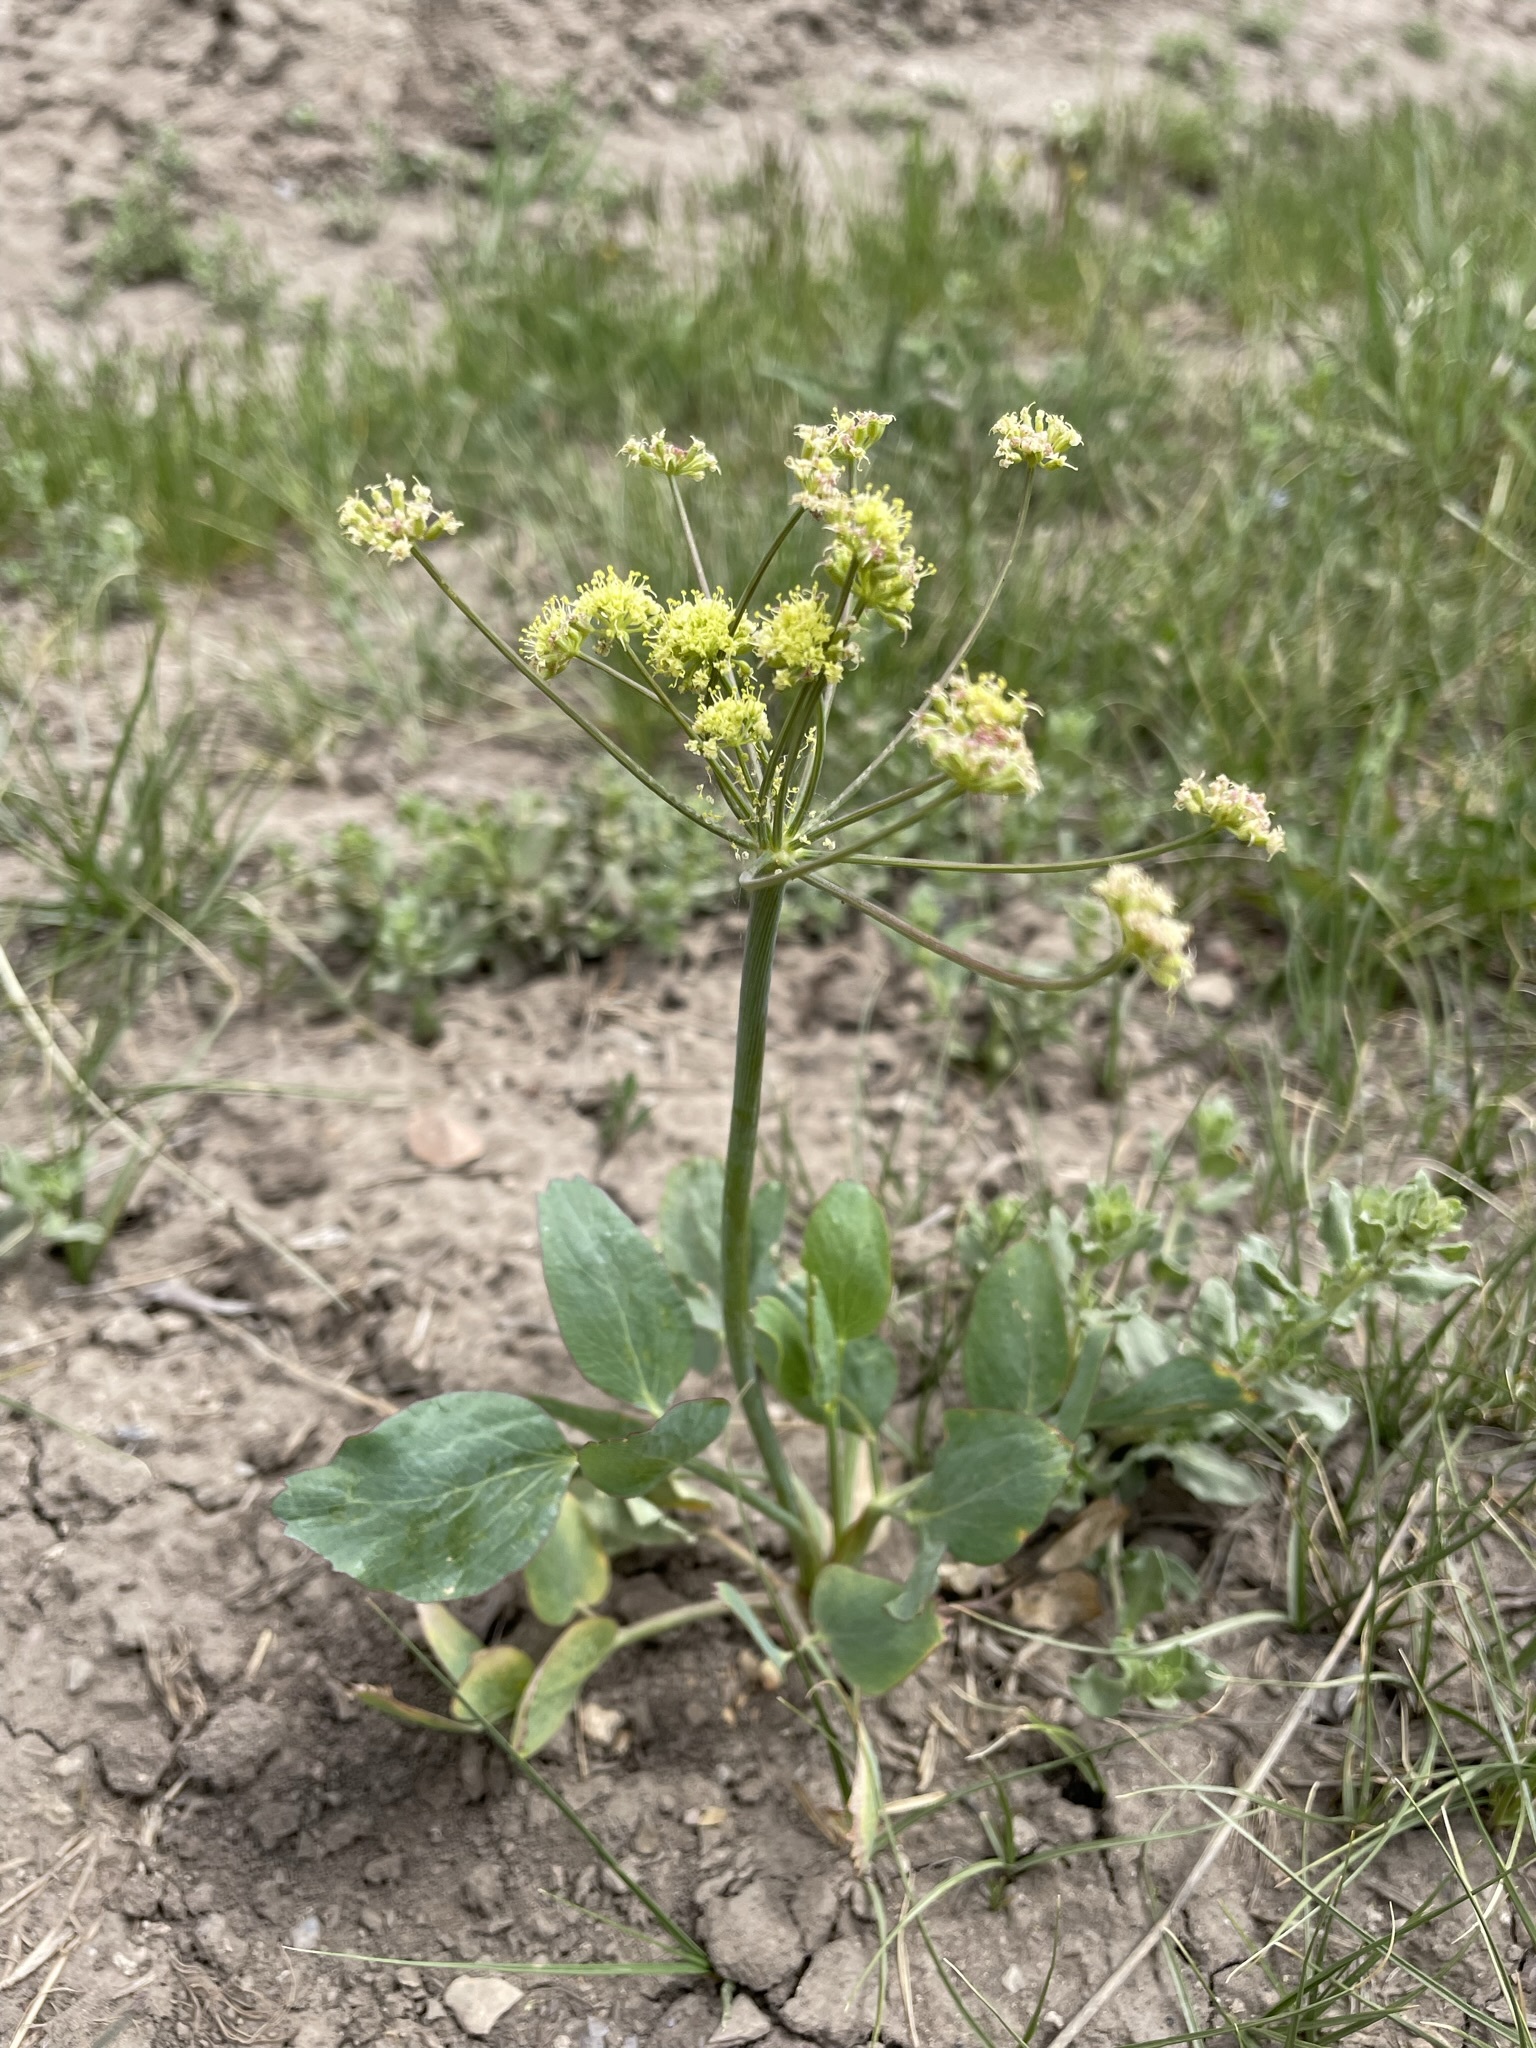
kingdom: Plantae
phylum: Tracheophyta
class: Magnoliopsida
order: Apiales
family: Apiaceae
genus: Lomatium
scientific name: Lomatium nudicaule
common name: Pestle lomatium
